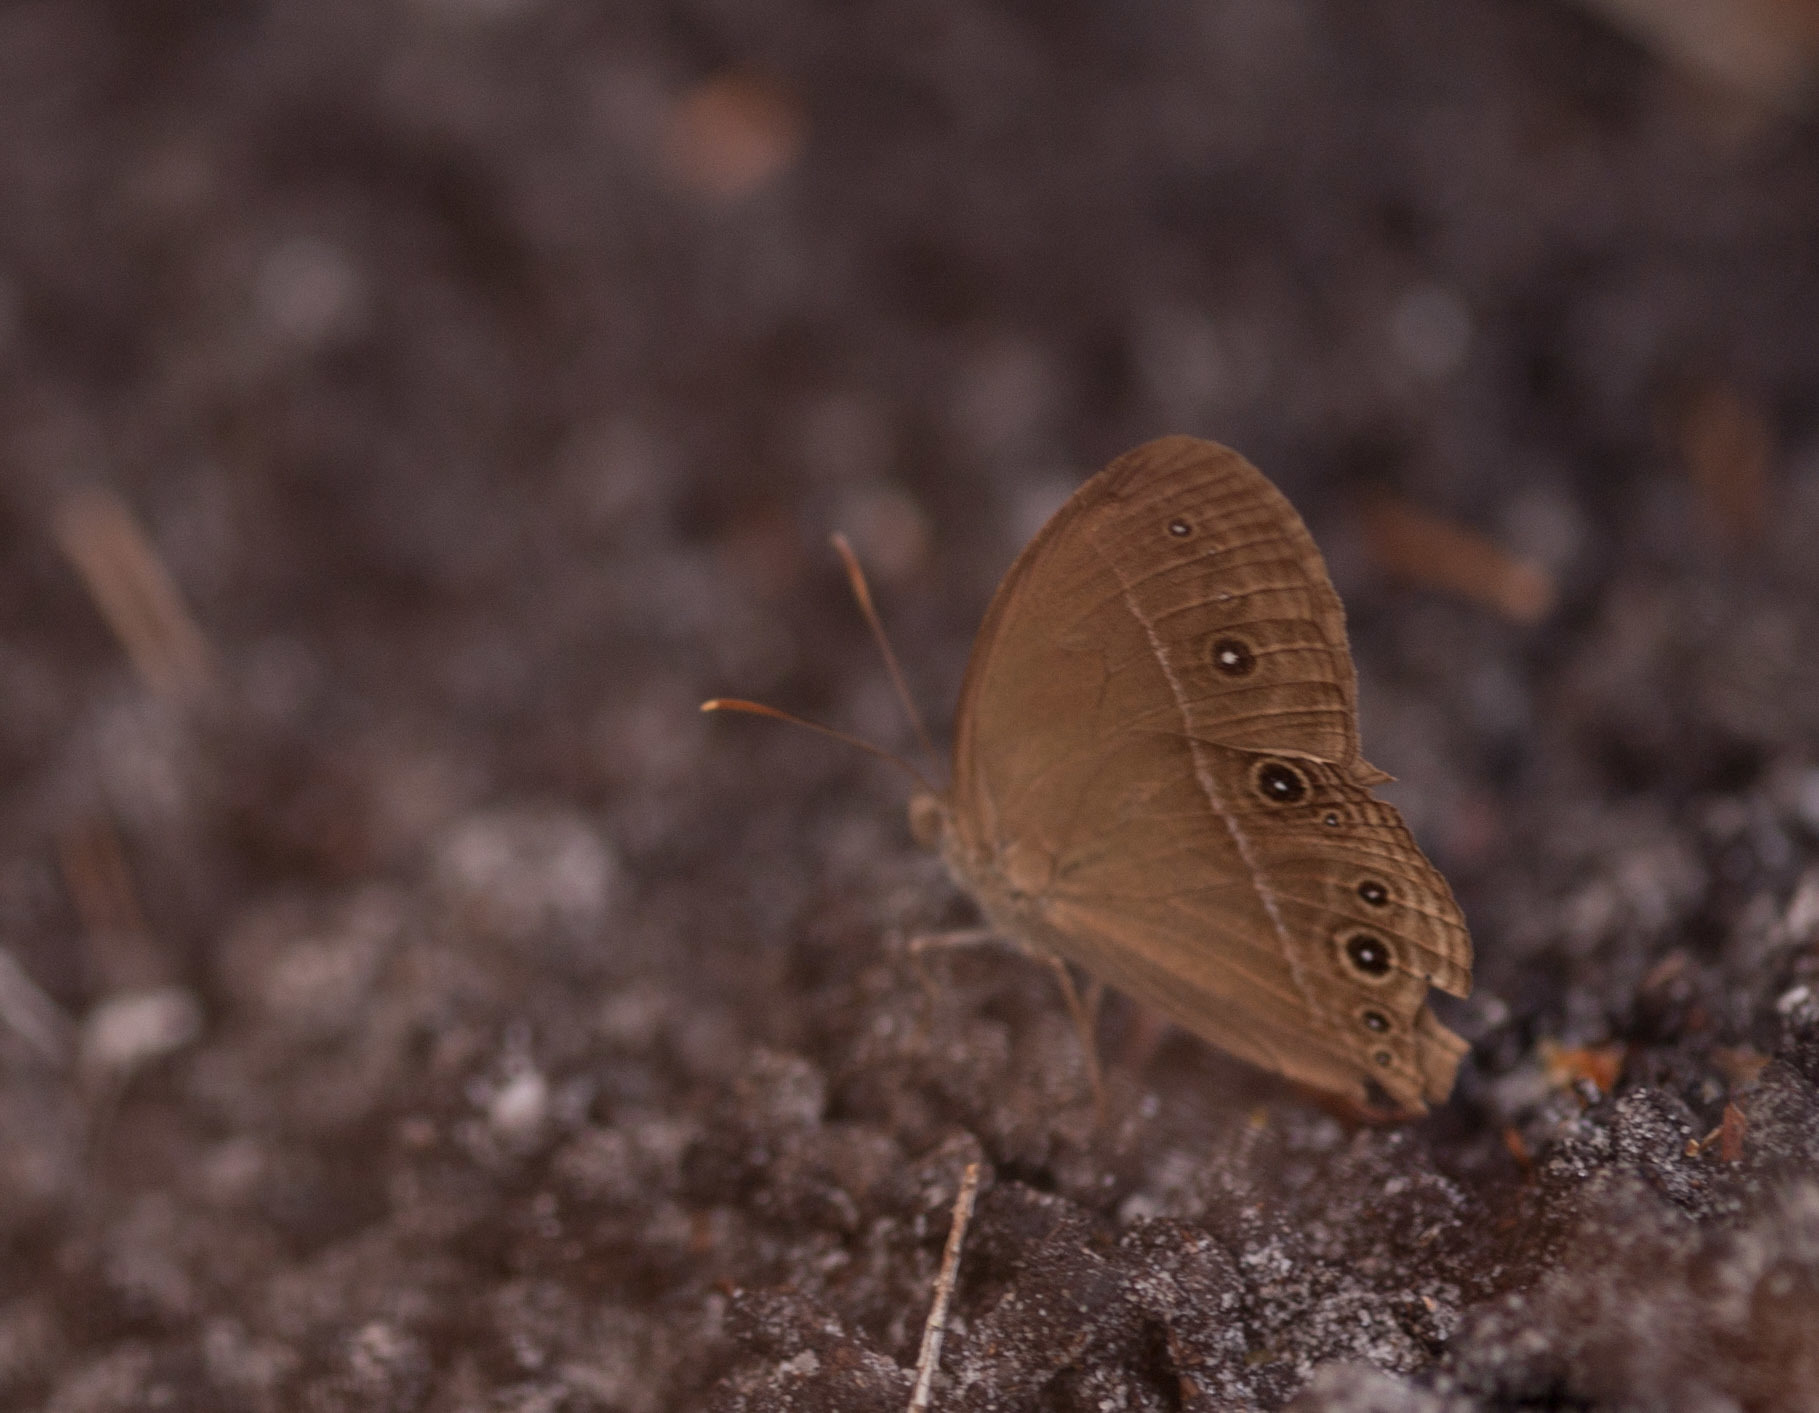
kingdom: Animalia
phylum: Arthropoda
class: Insecta
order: Lepidoptera
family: Nymphalidae
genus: Mycalesis
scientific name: Mycalesis perseus
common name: Dingy bushbrown
